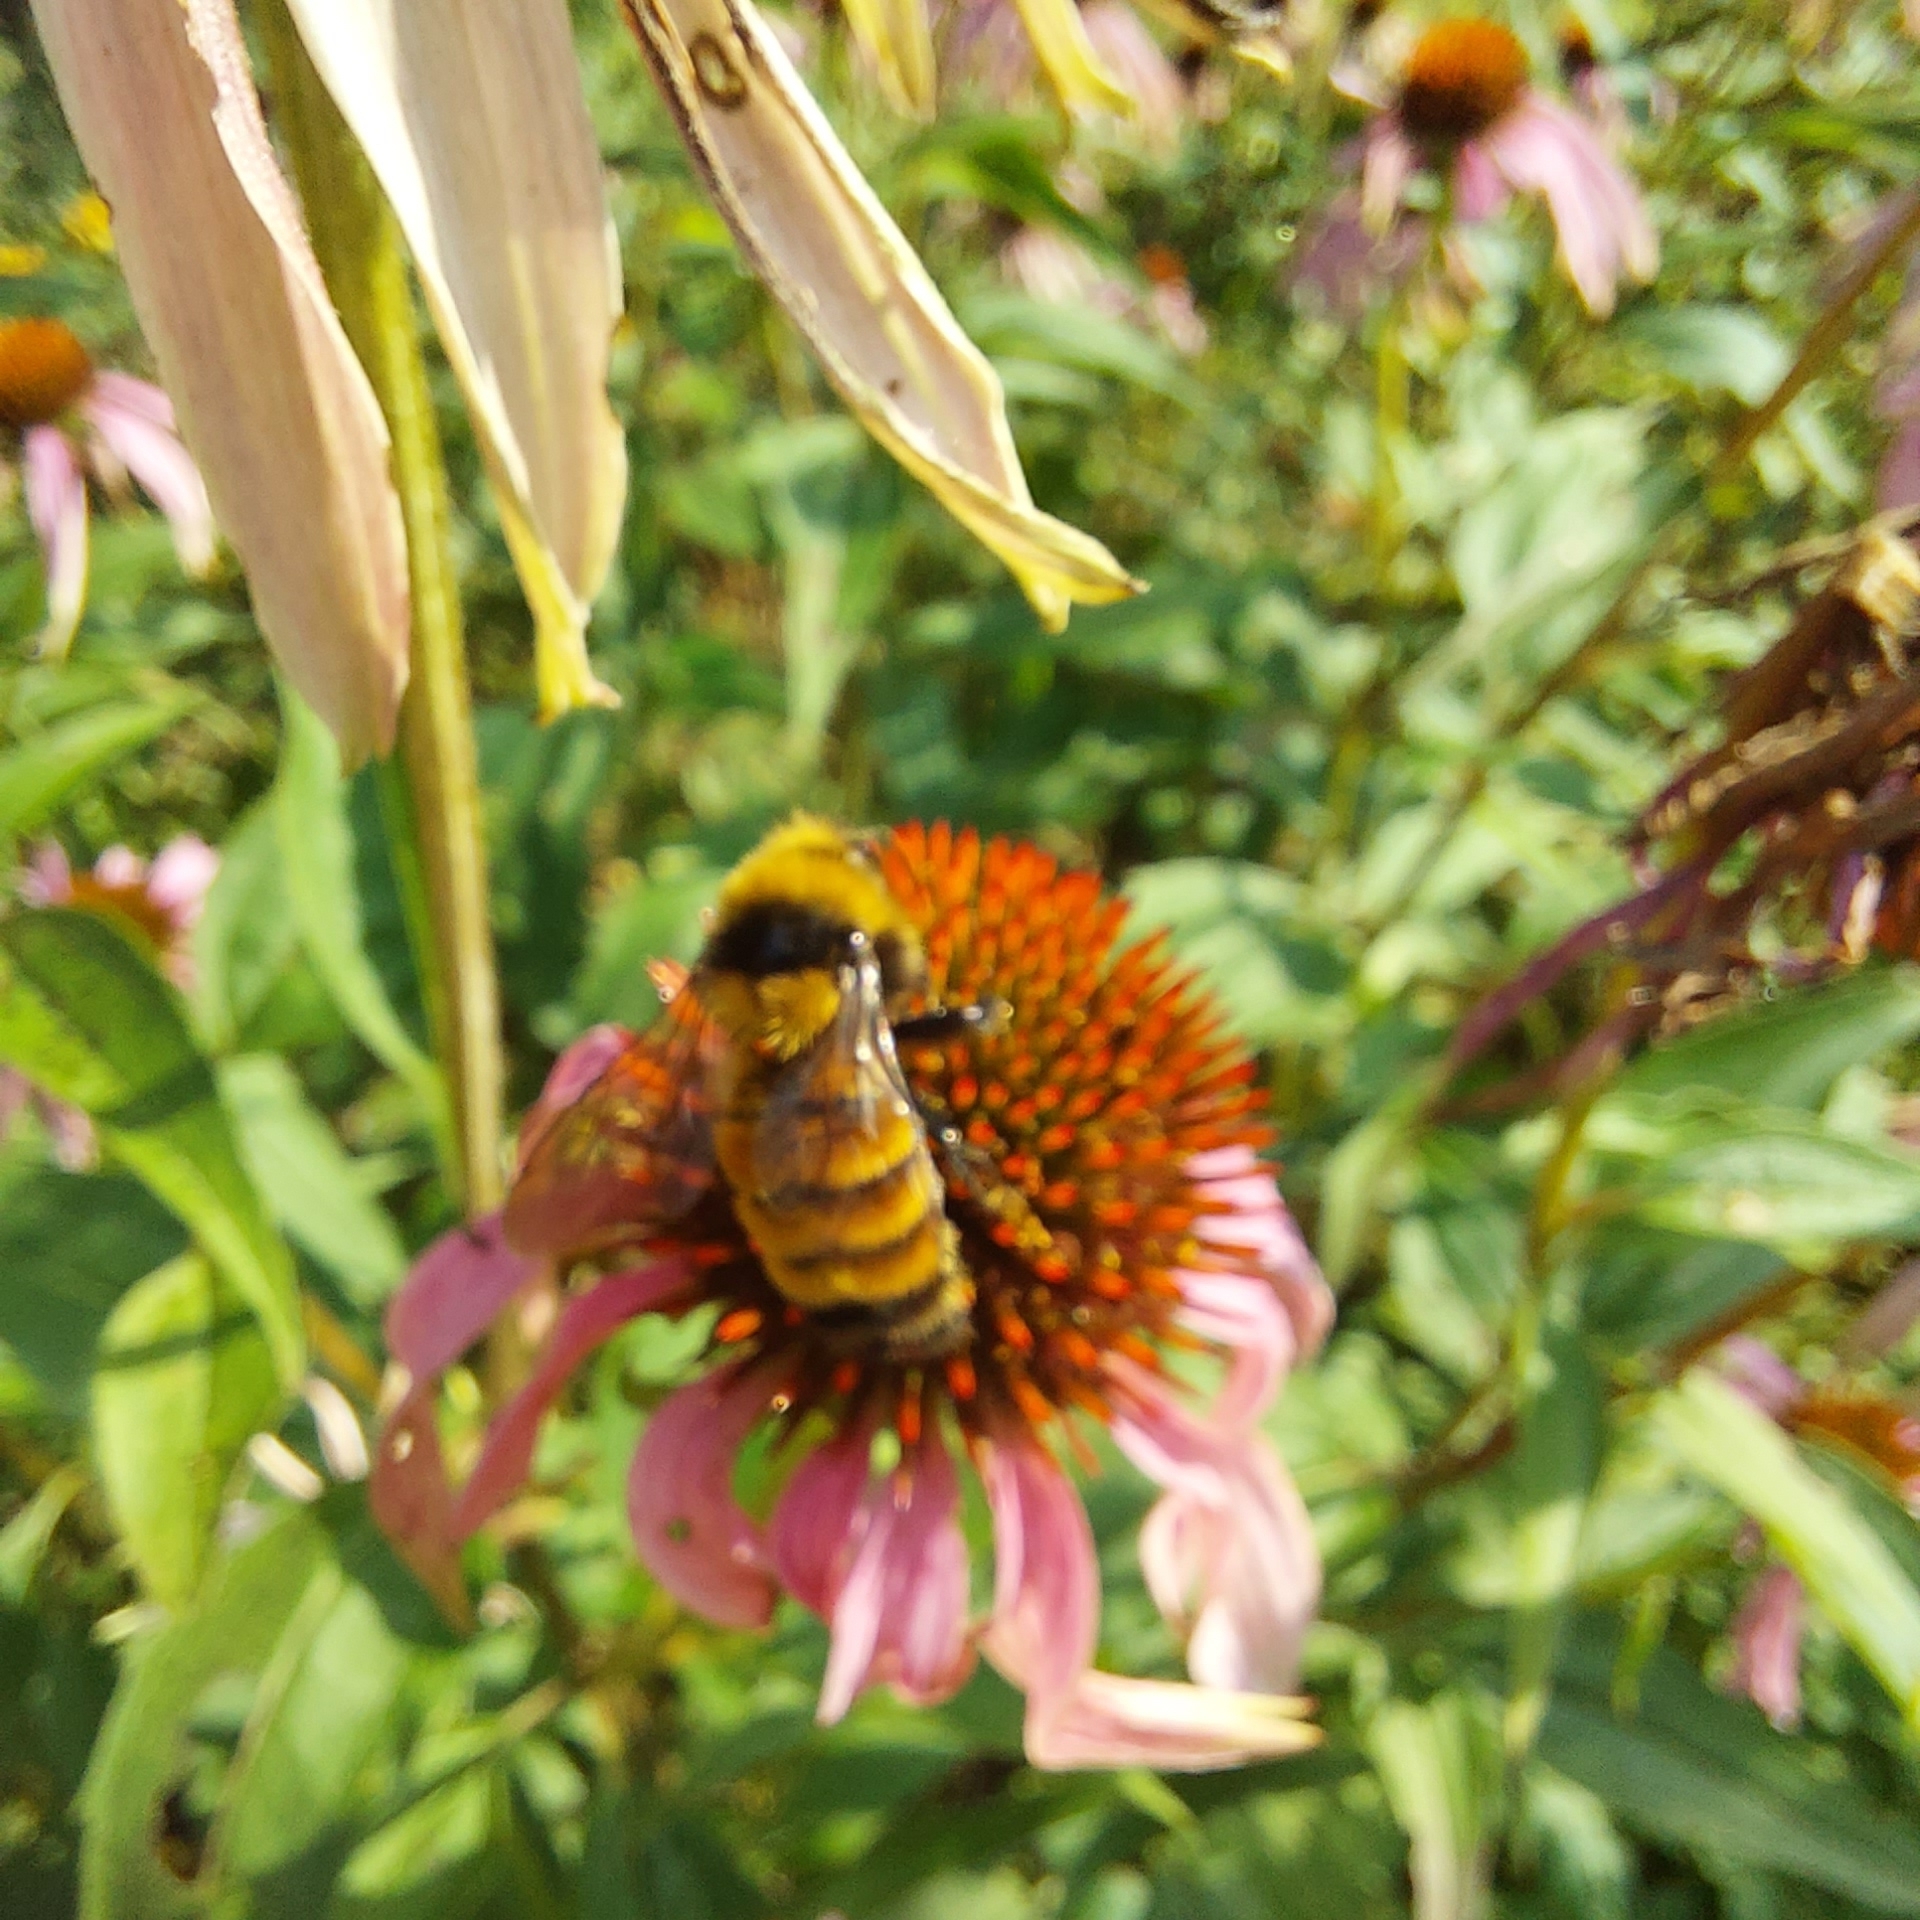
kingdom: Animalia
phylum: Arthropoda
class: Insecta
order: Hymenoptera
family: Apidae
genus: Bombus
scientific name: Bombus borealis
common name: Northern amber bumble bee
